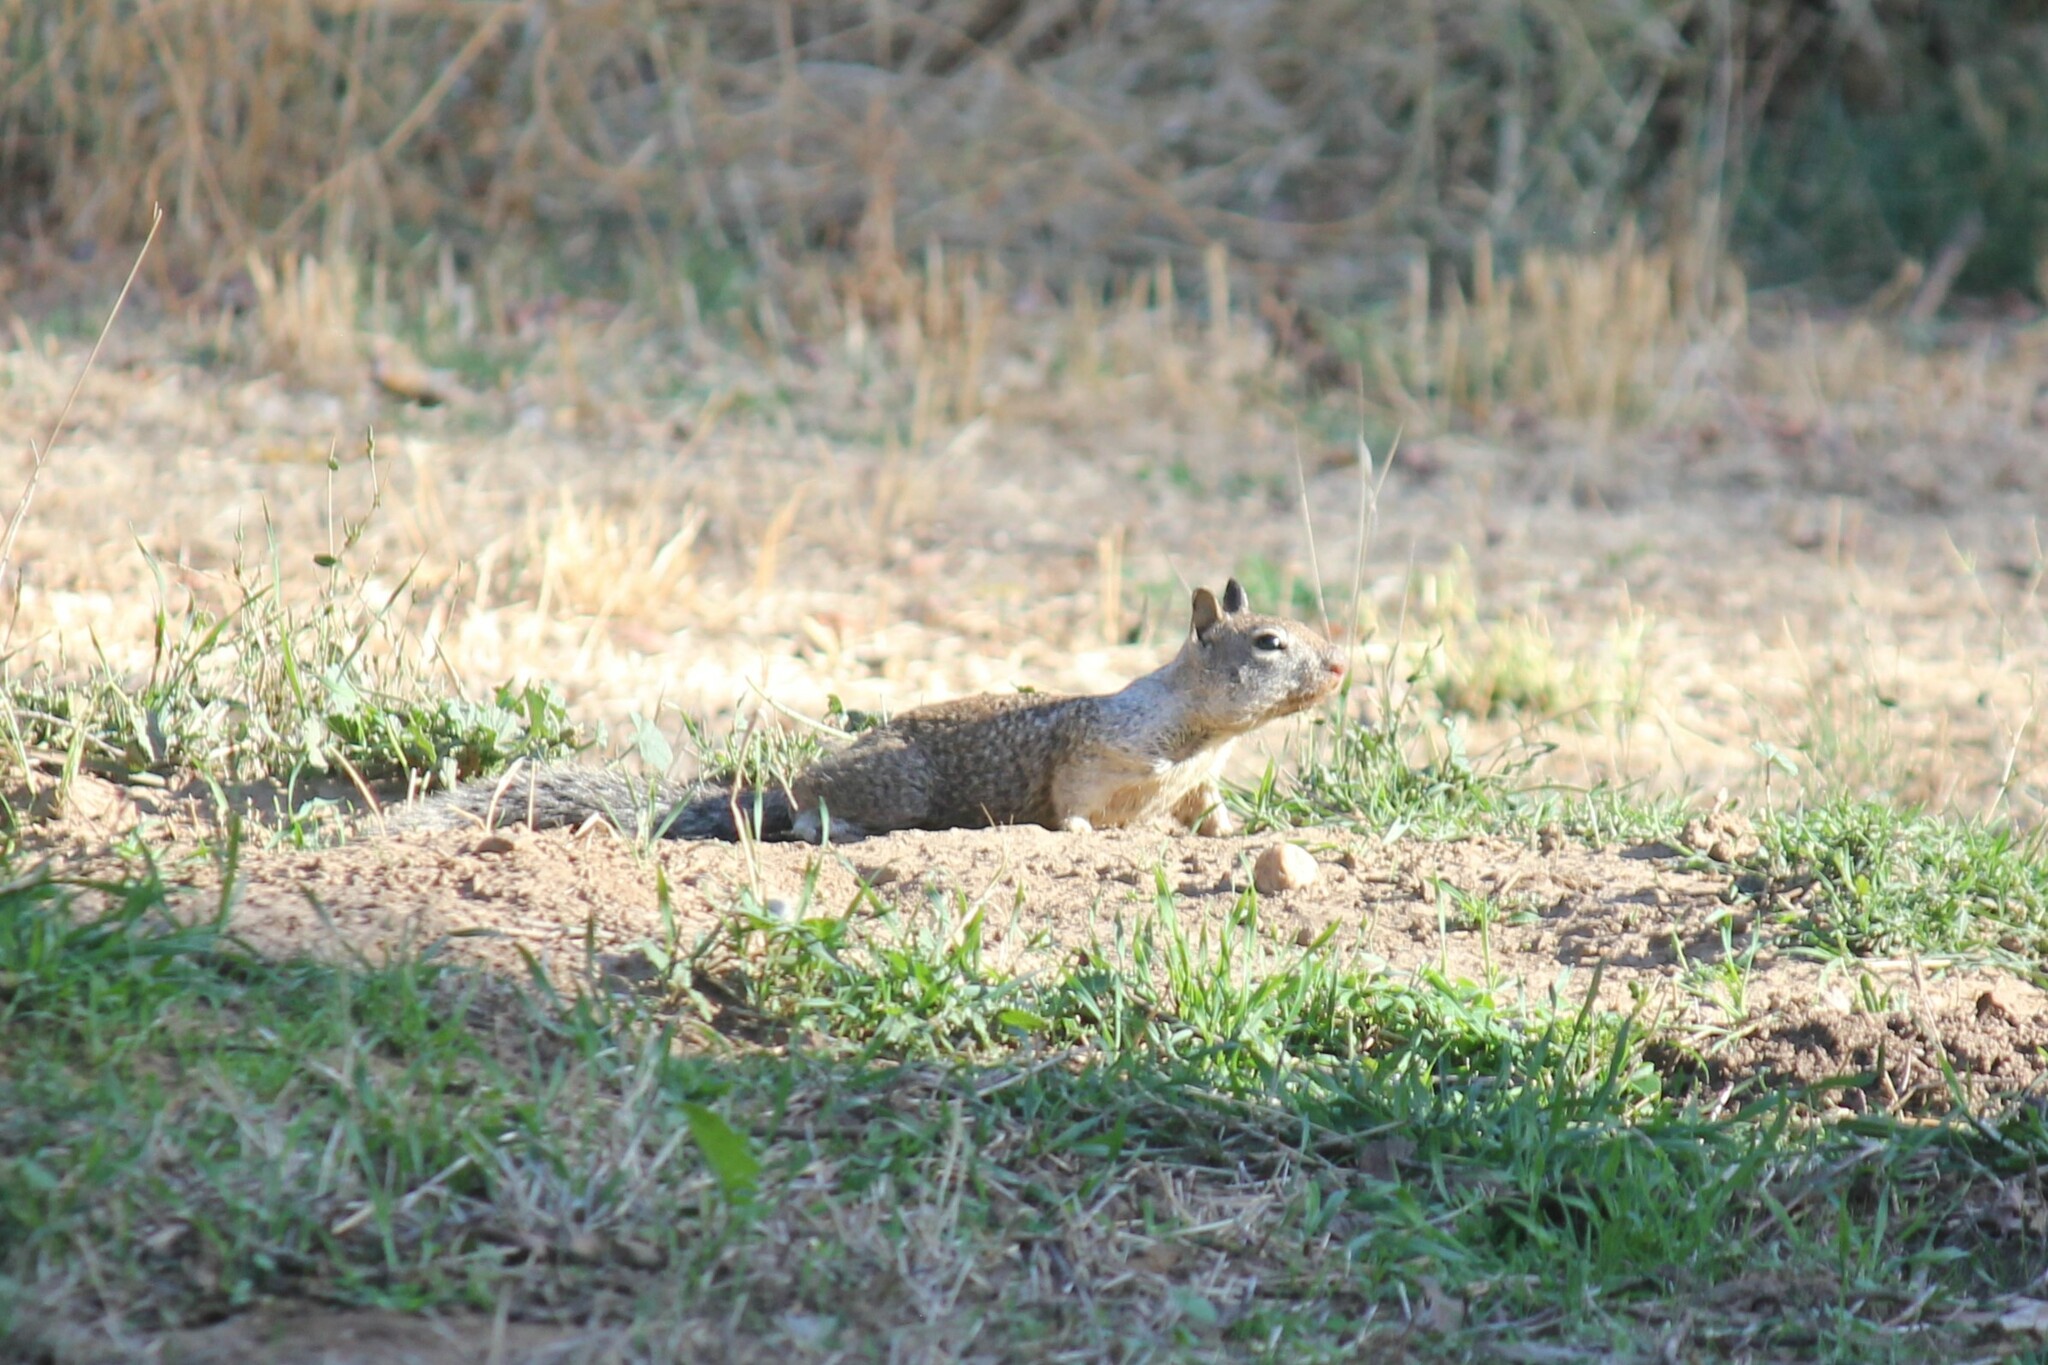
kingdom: Animalia
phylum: Chordata
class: Mammalia
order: Rodentia
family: Sciuridae
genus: Otospermophilus
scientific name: Otospermophilus beecheyi
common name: California ground squirrel
